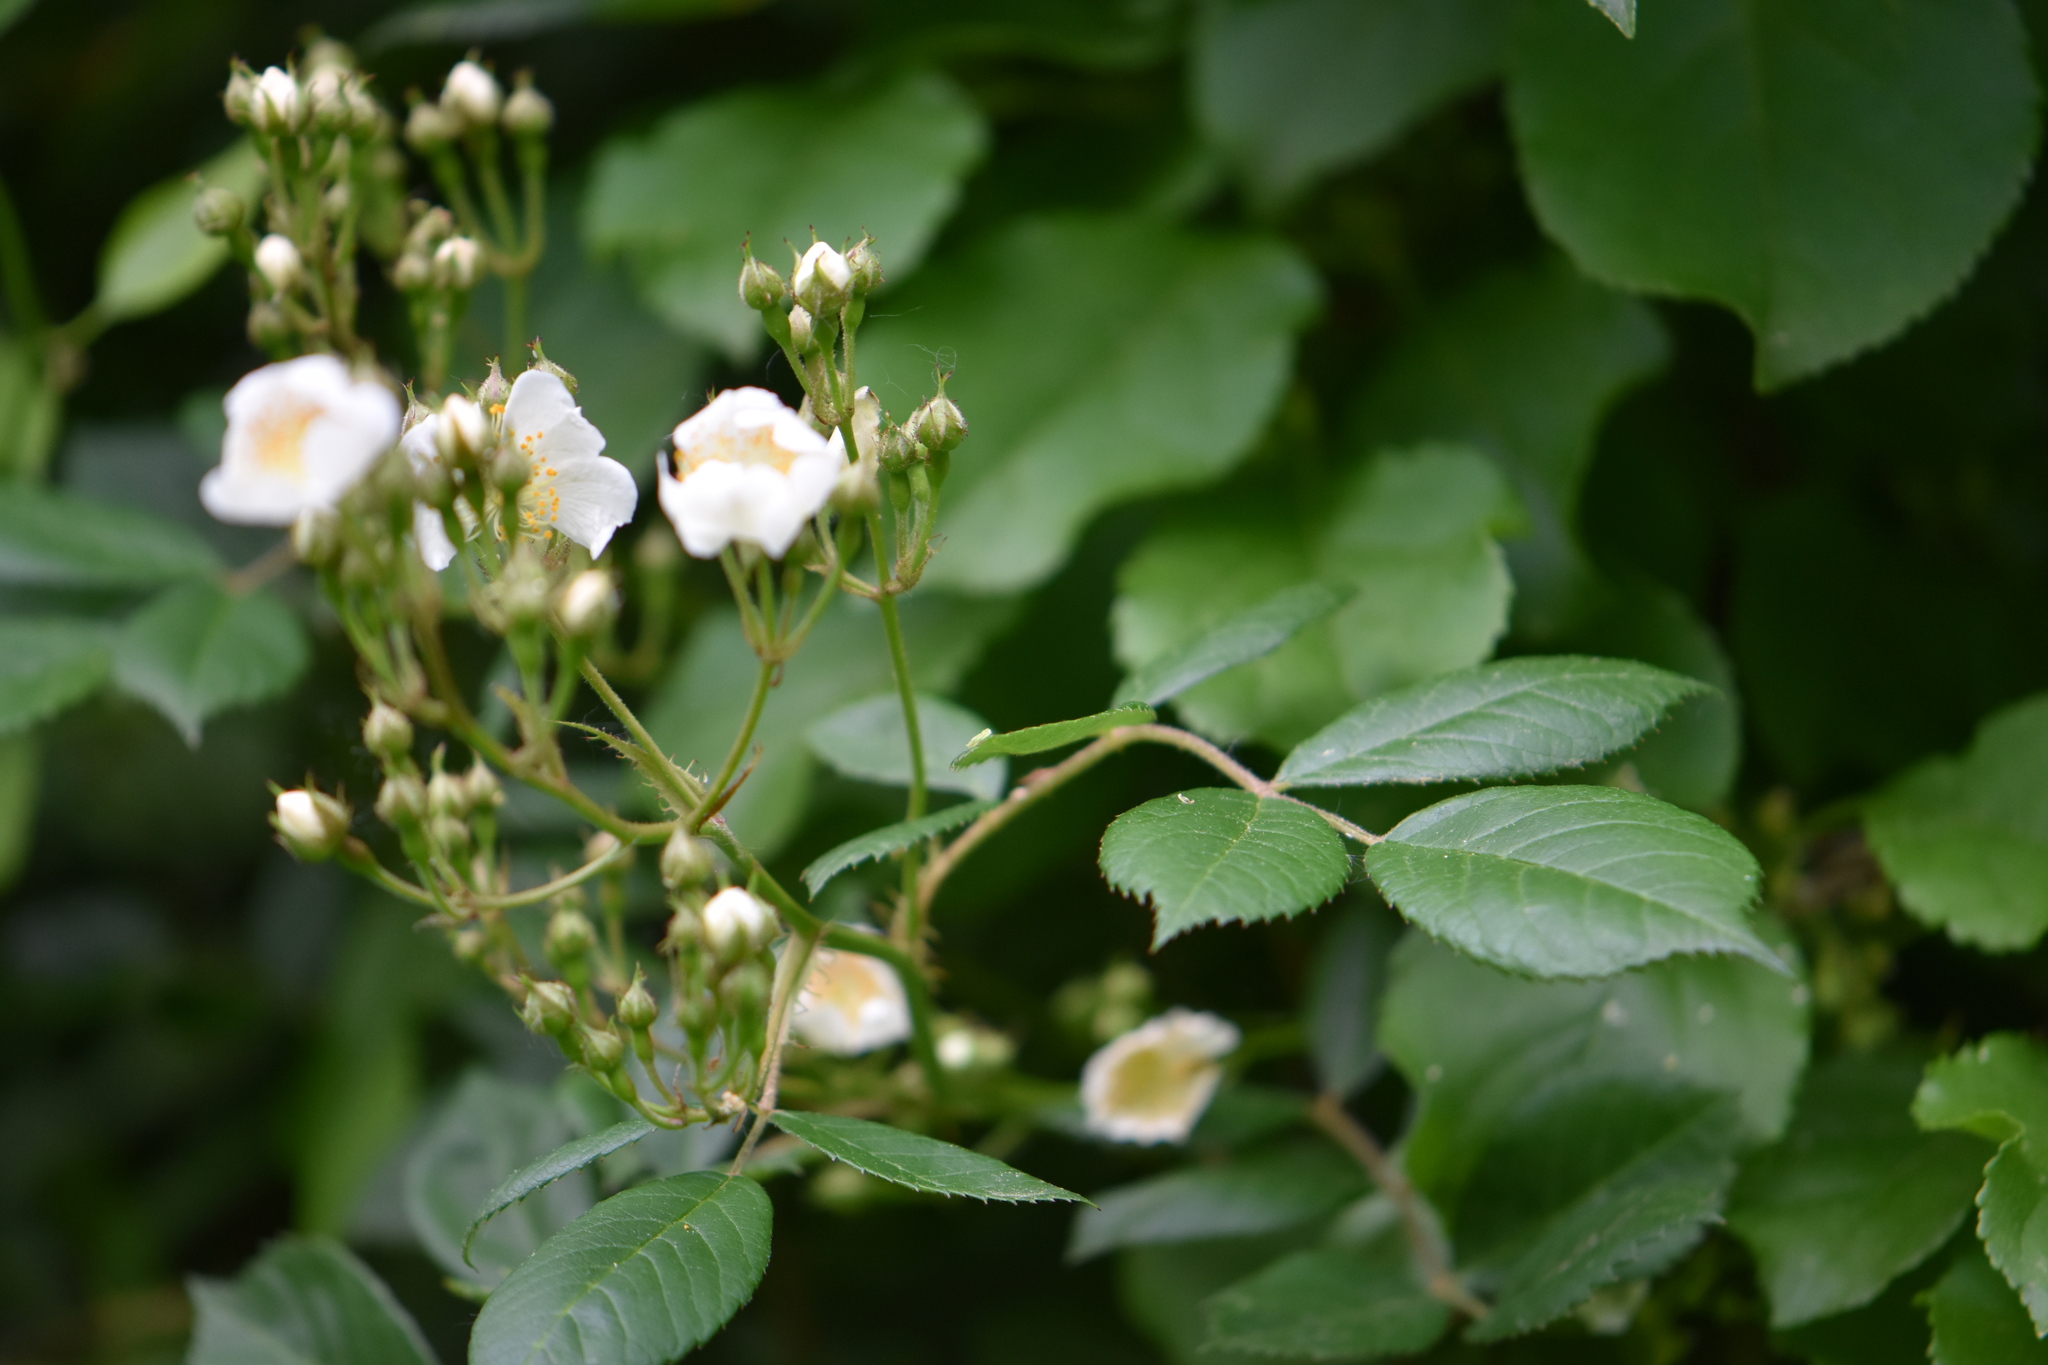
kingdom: Plantae
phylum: Tracheophyta
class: Magnoliopsida
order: Rosales
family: Rosaceae
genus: Rosa
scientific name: Rosa multiflora
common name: Multiflora rose
